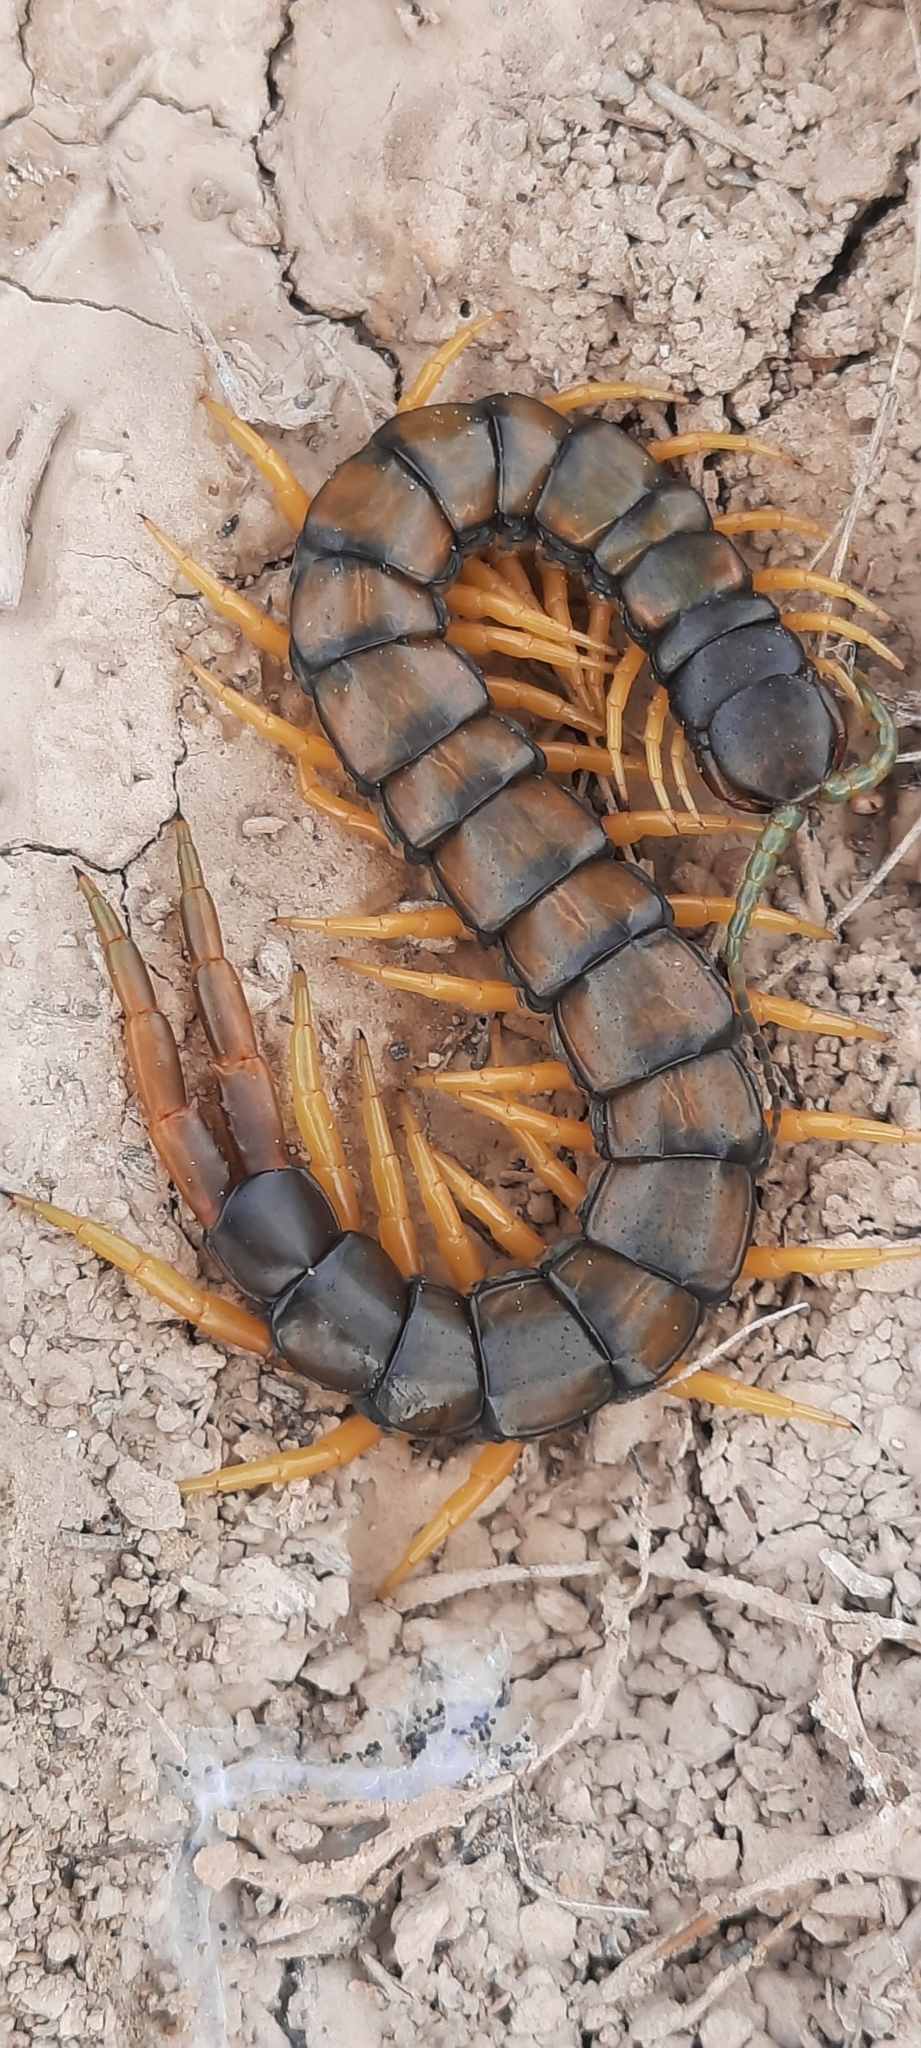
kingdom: Animalia
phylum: Arthropoda
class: Chilopoda
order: Scolopendromorpha
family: Scolopendridae
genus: Scolopendra
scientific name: Scolopendra cingulata
